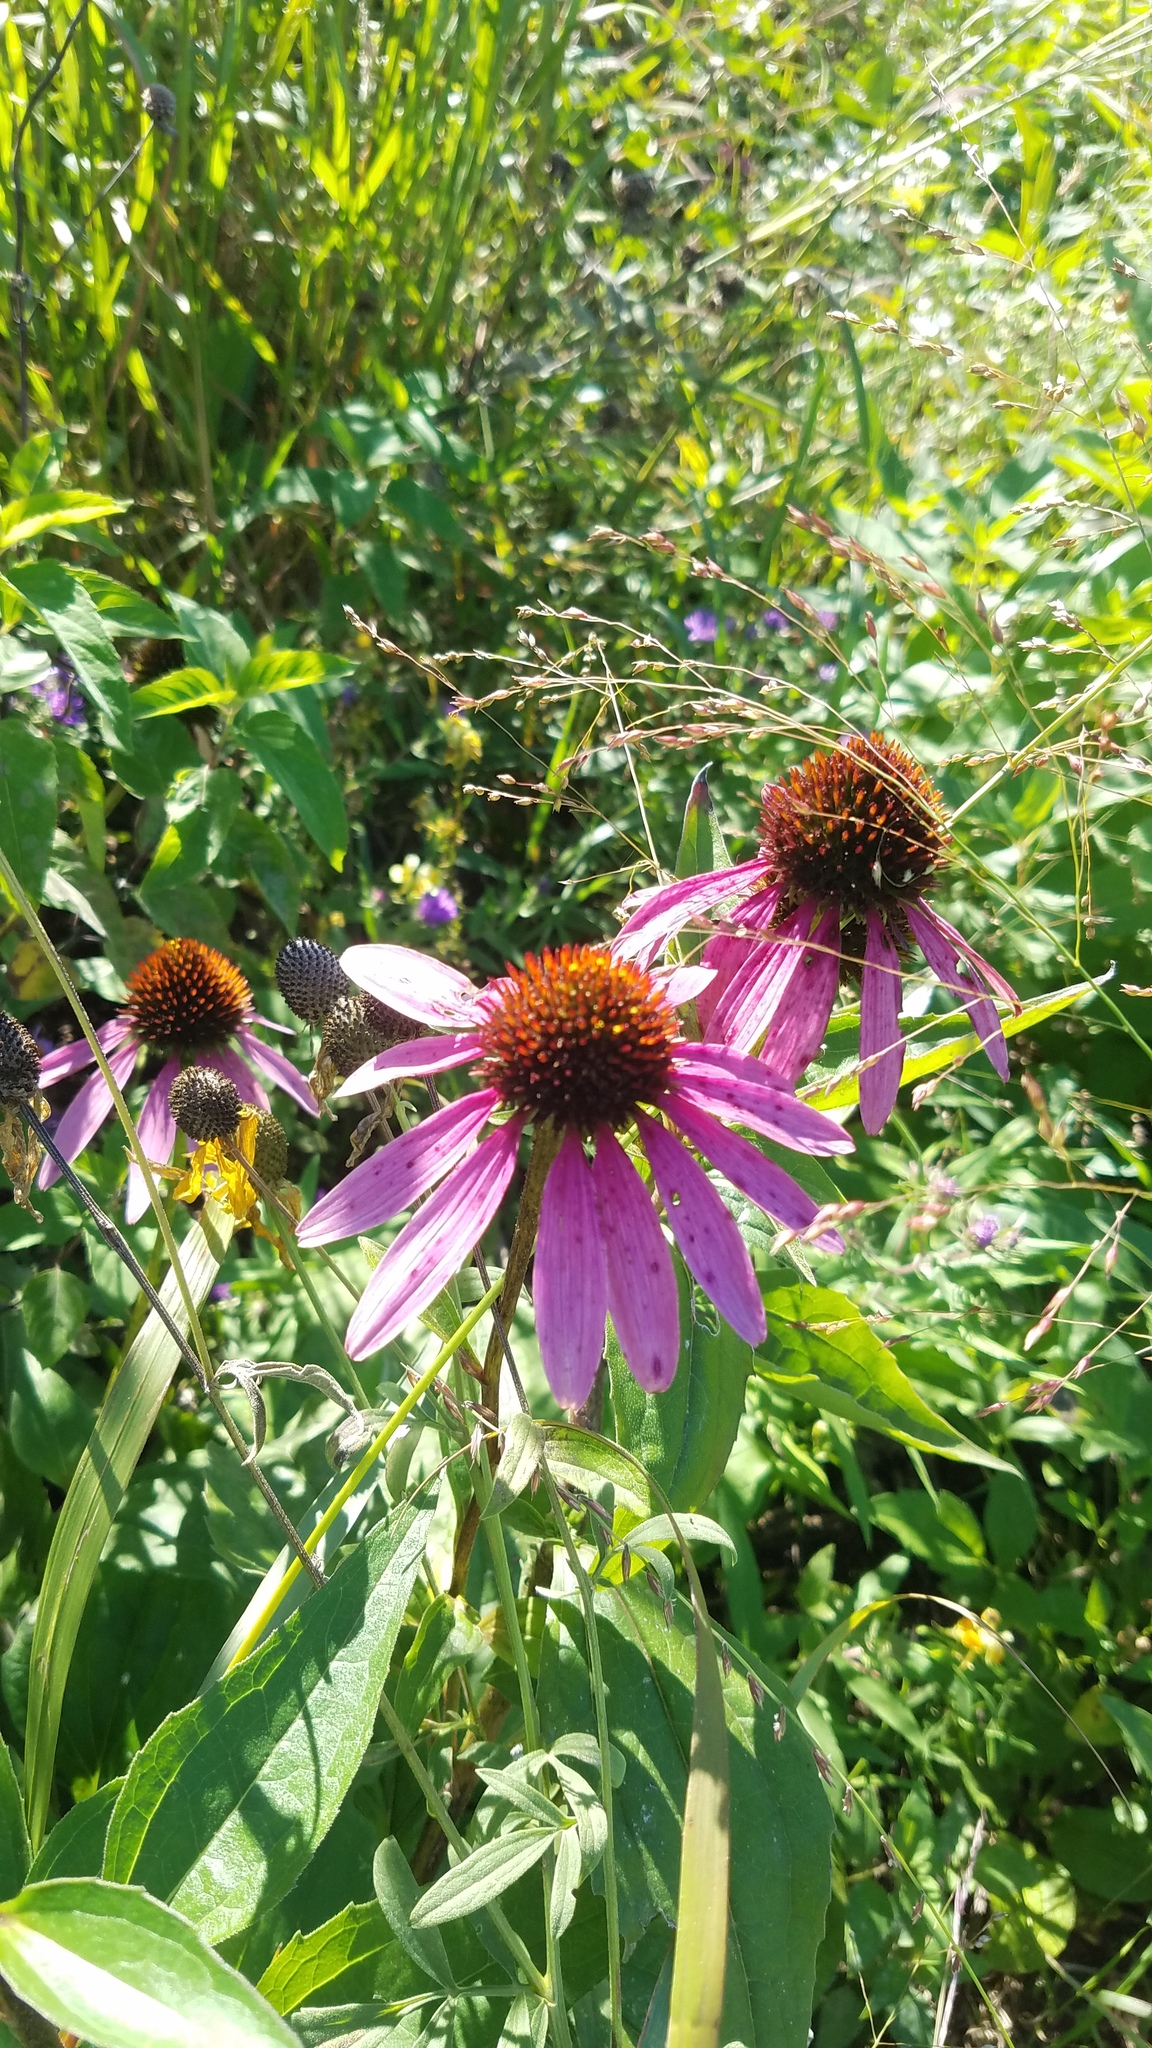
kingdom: Plantae
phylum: Tracheophyta
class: Magnoliopsida
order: Asterales
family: Asteraceae
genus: Echinacea
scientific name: Echinacea purpurea
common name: Broad-leaved purple coneflower
